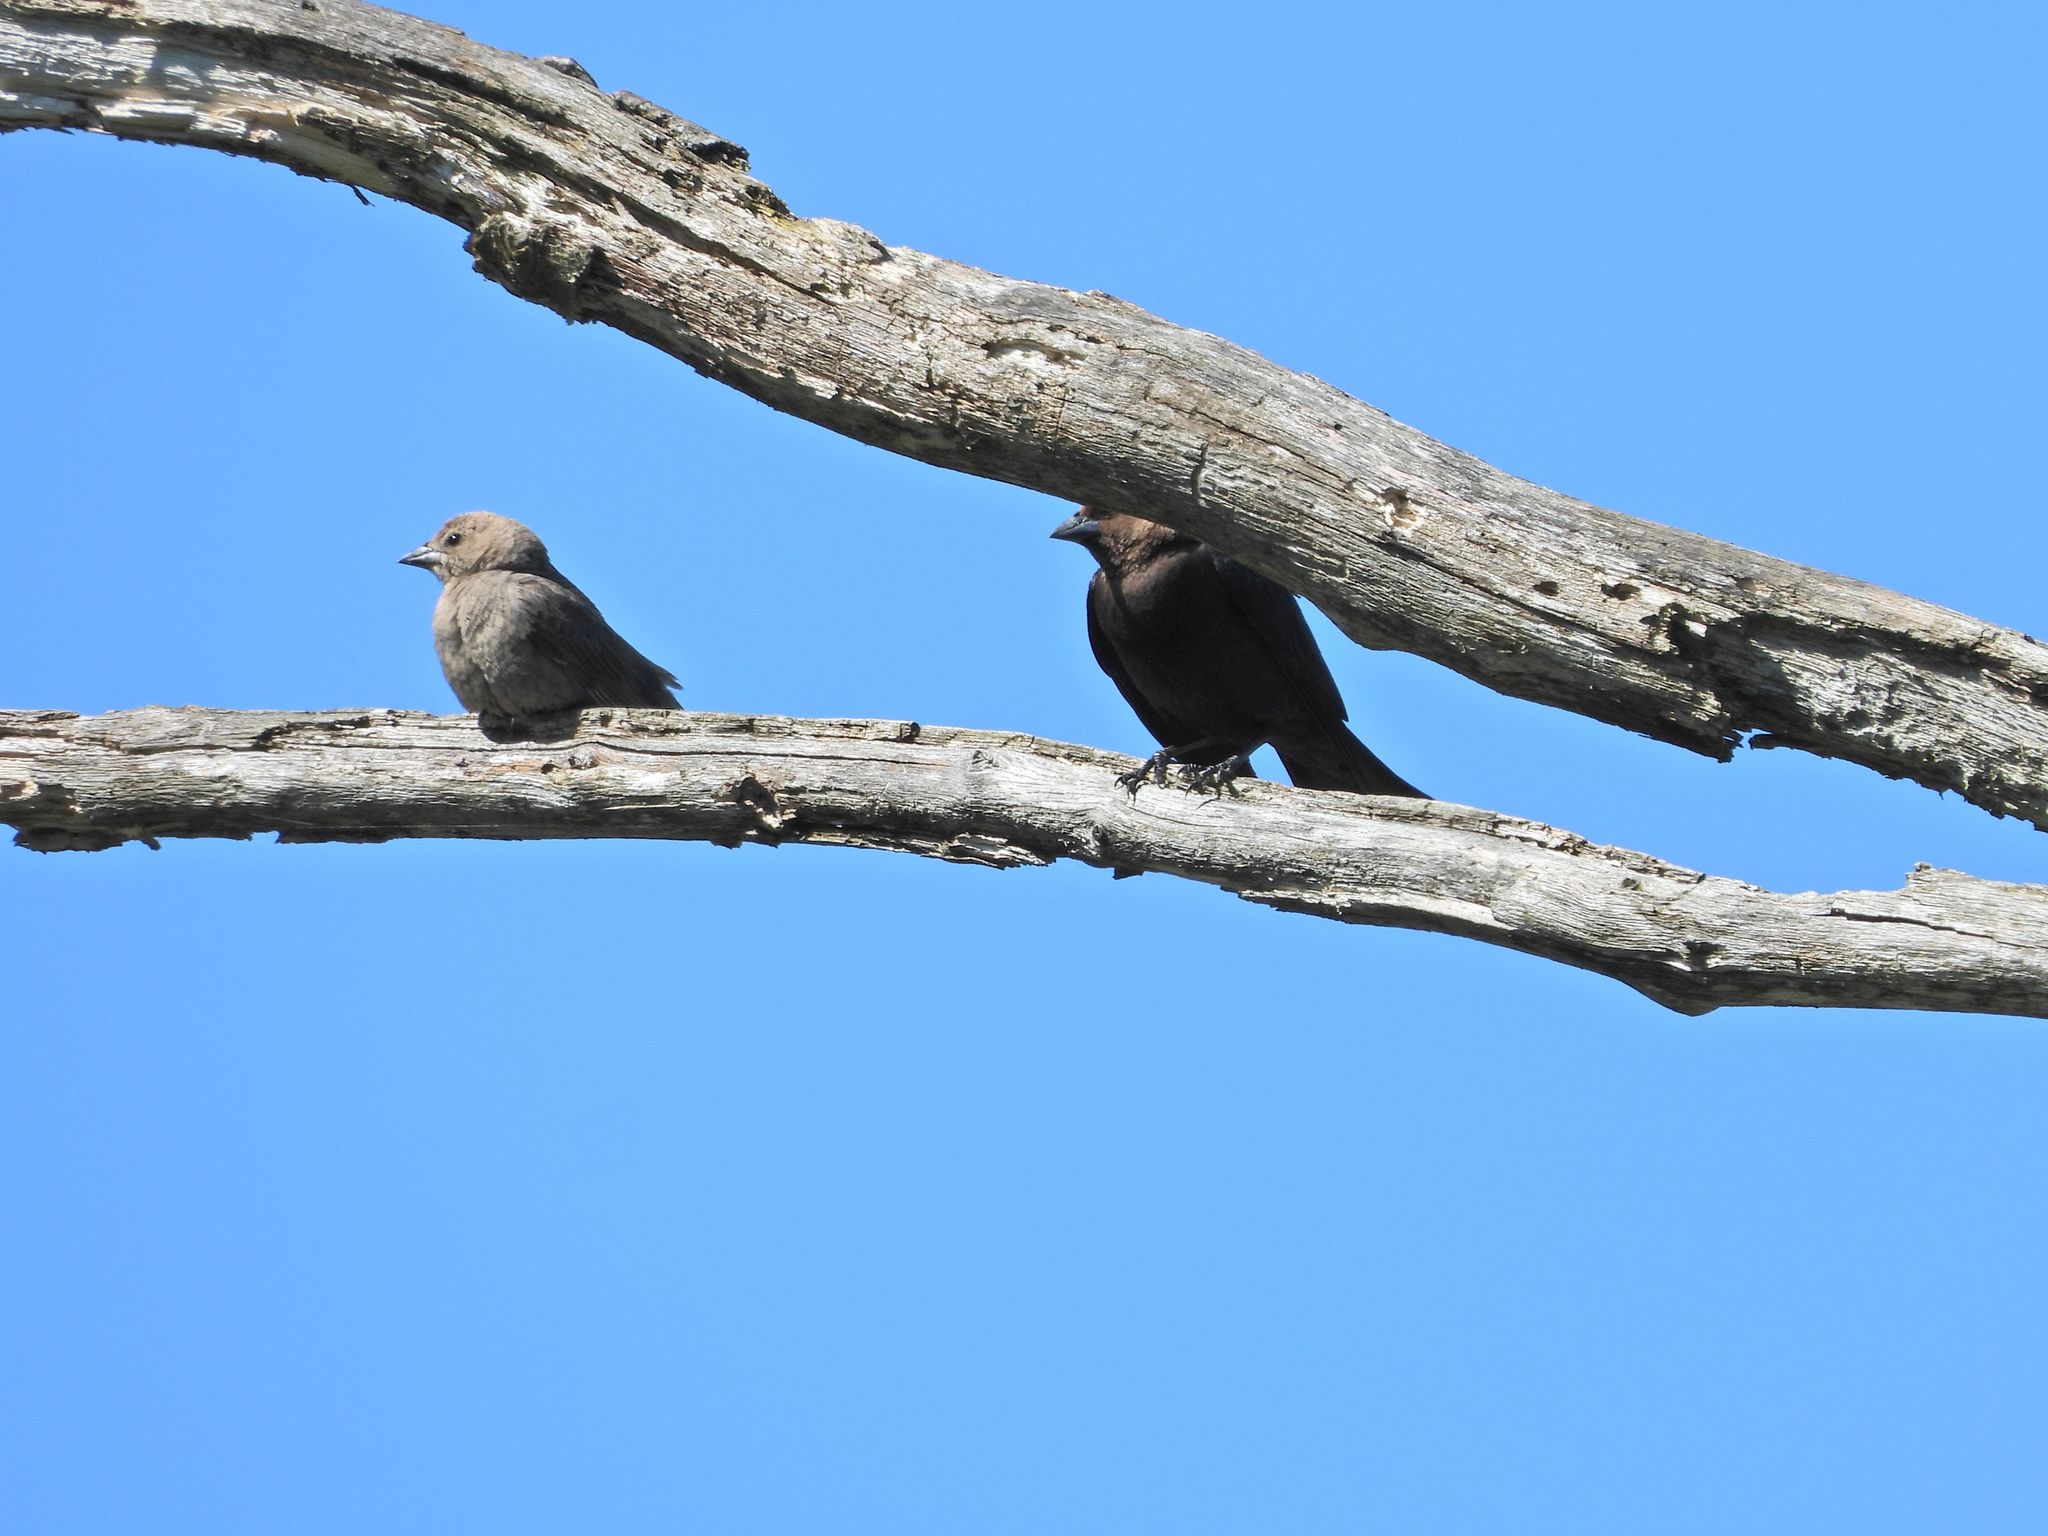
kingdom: Animalia
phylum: Chordata
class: Aves
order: Passeriformes
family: Icteridae
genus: Molothrus
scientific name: Molothrus ater
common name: Brown-headed cowbird
